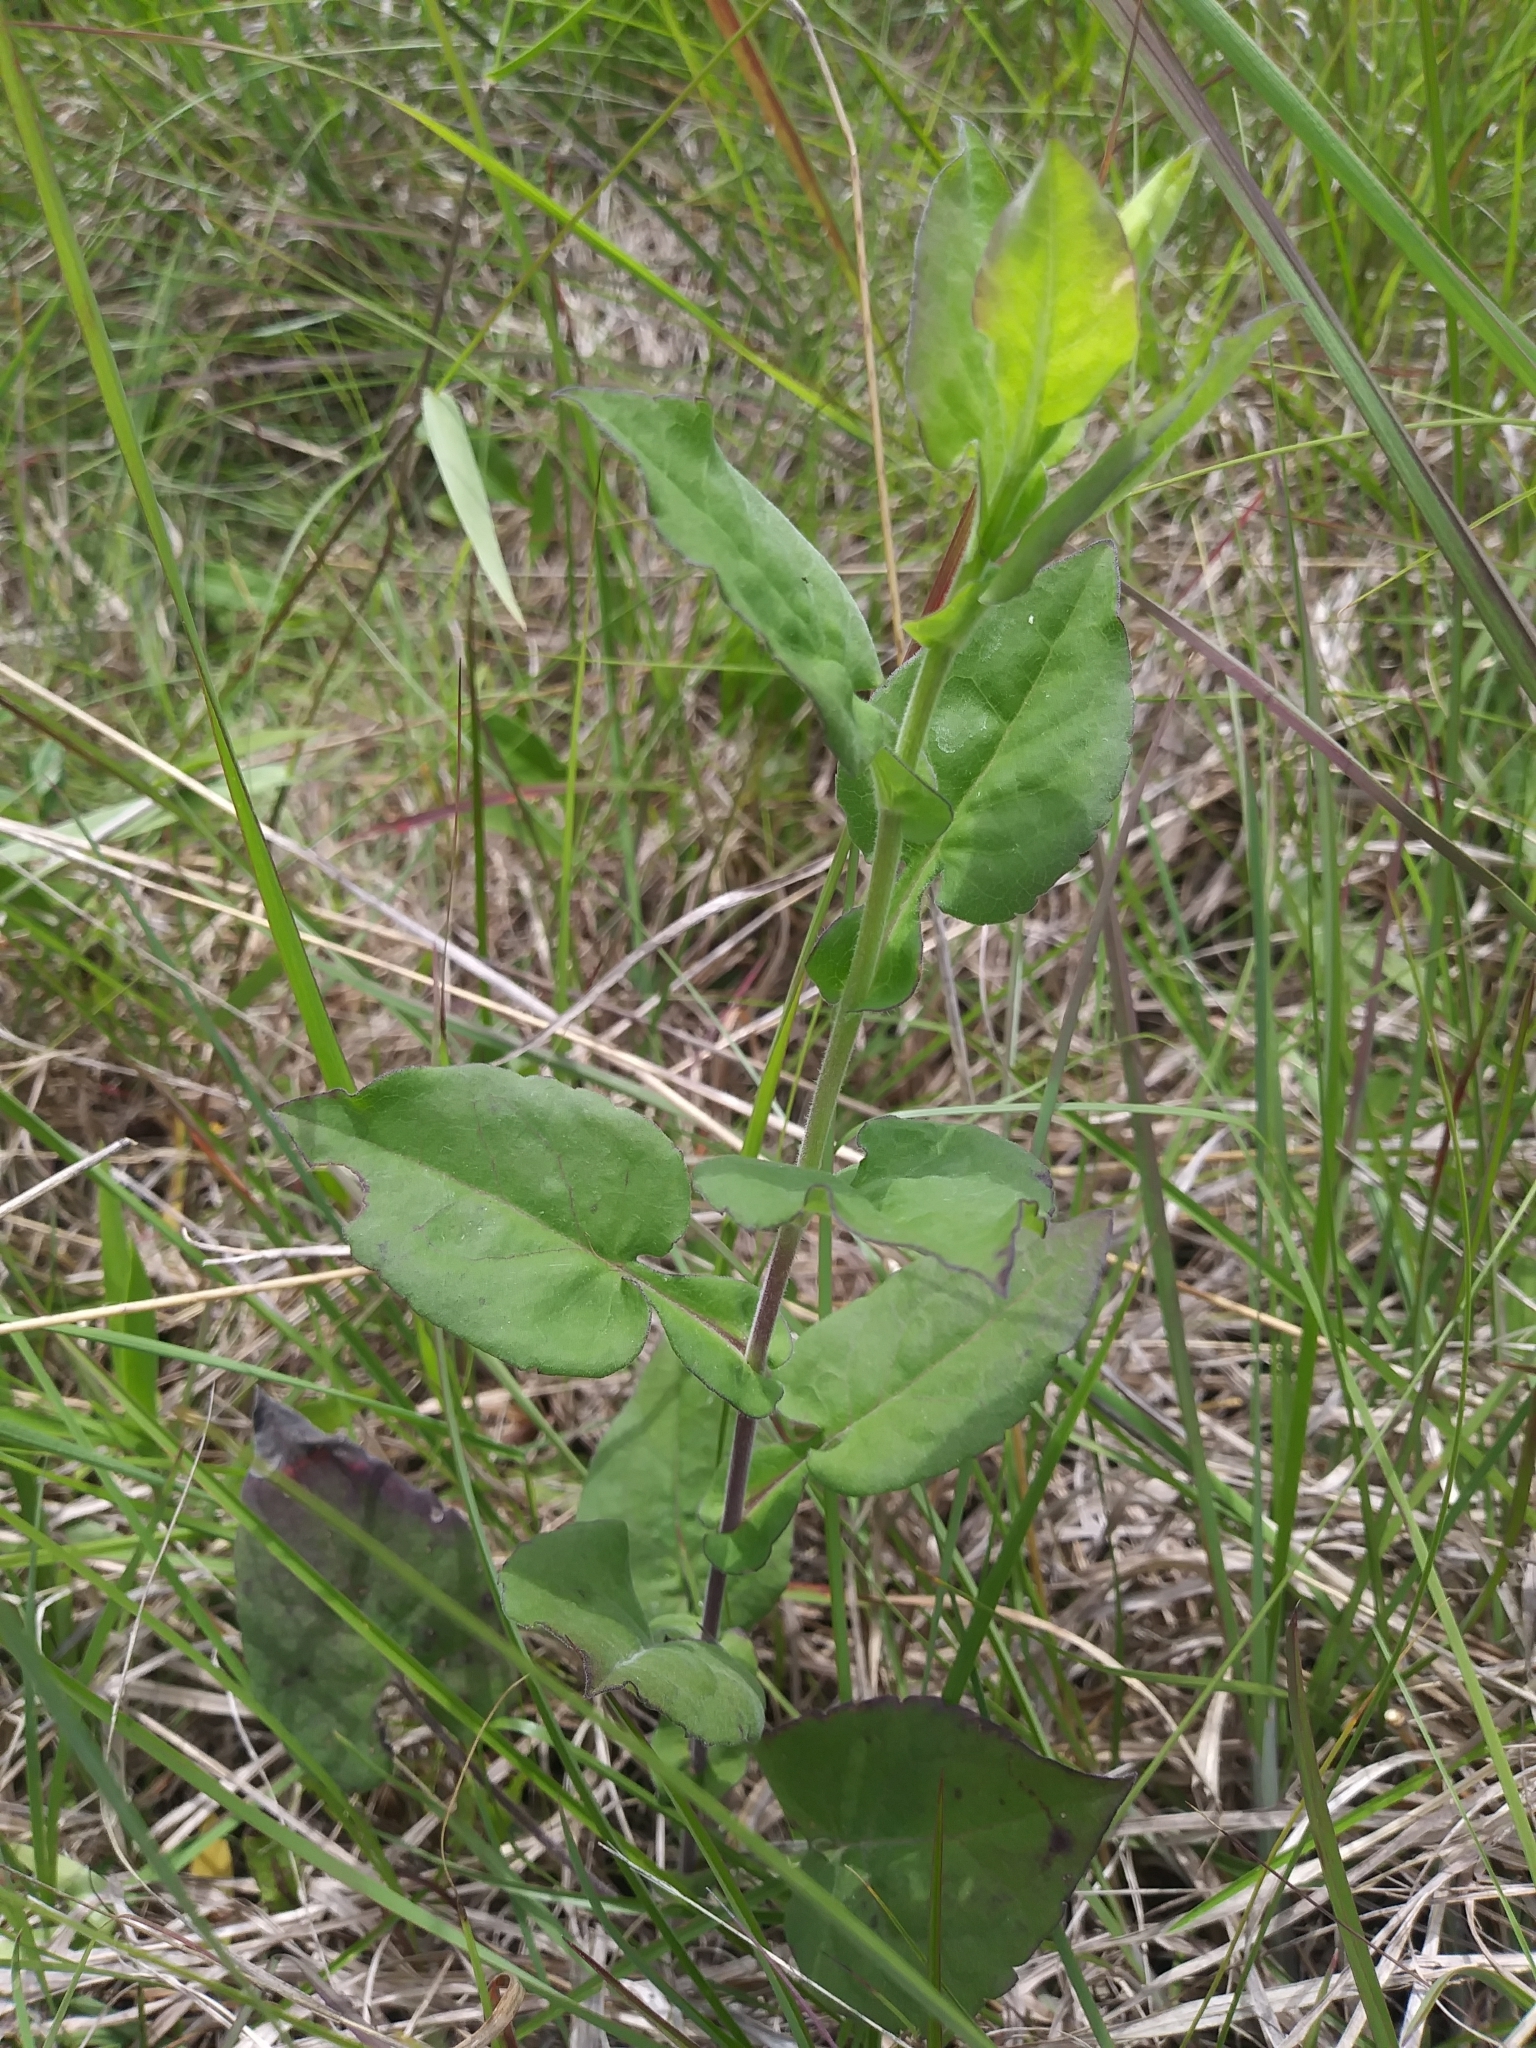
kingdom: Plantae
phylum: Tracheophyta
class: Magnoliopsida
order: Asterales
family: Asteraceae
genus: Symphyotrichum
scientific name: Symphyotrichum undulatum
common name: Clasping heart-leaf aster
